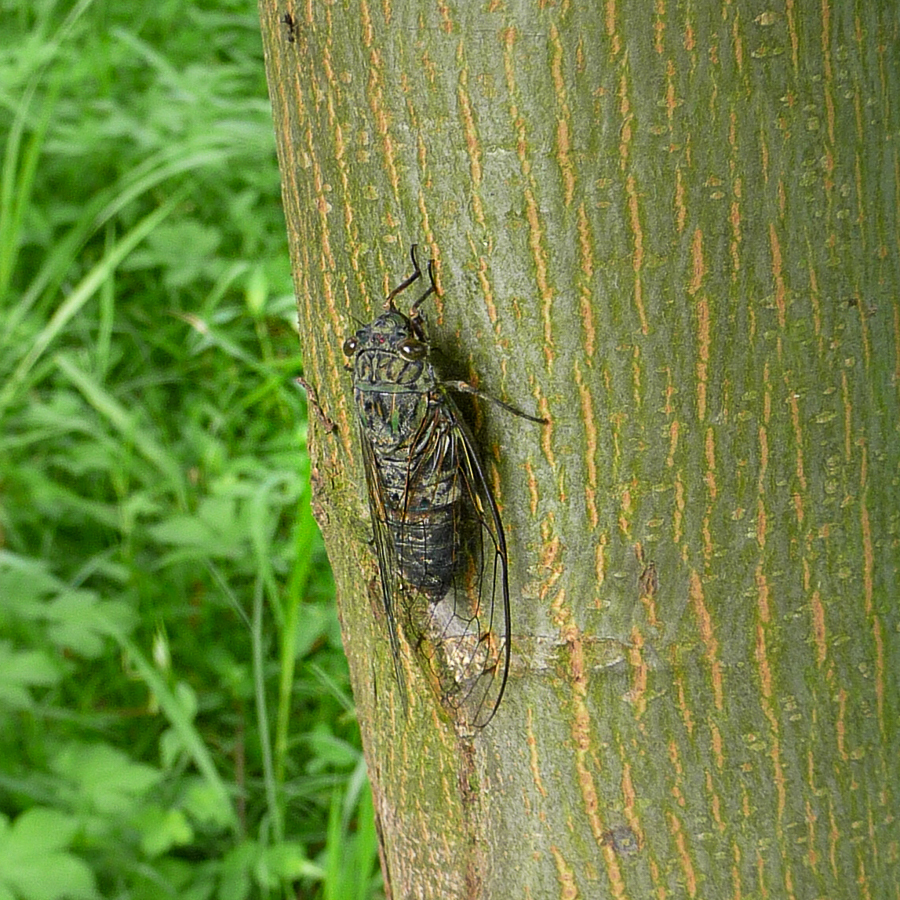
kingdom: Animalia
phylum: Arthropoda
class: Insecta
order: Hemiptera
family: Cicadidae
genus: Meimuna
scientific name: Meimuna opalifera
